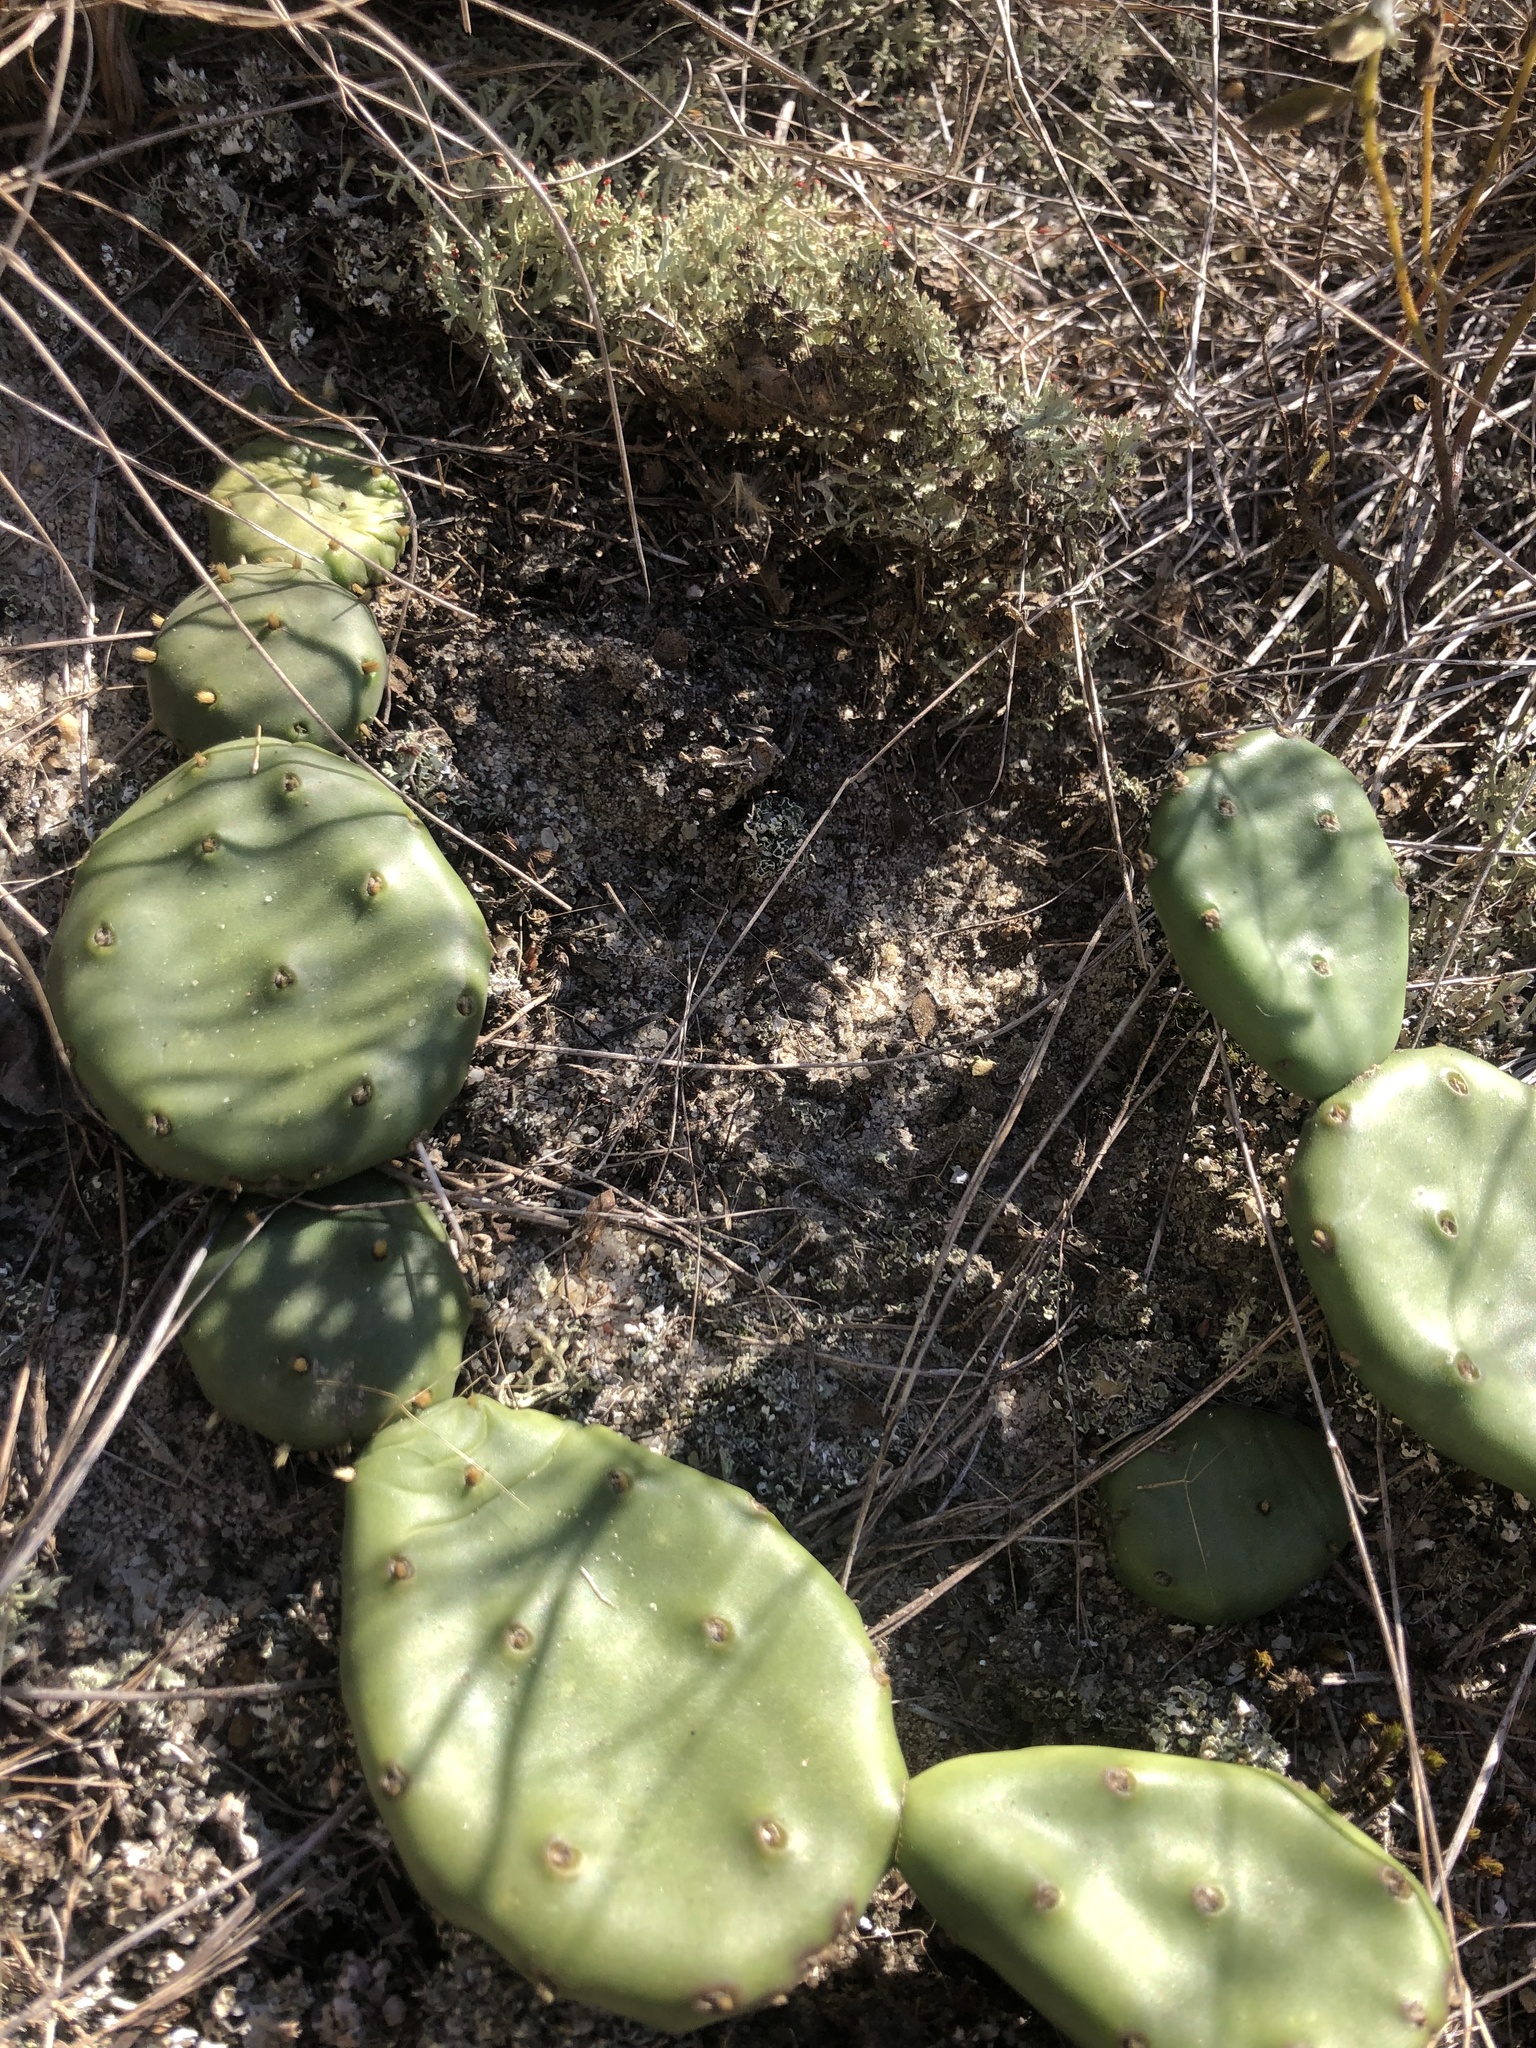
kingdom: Plantae
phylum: Tracheophyta
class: Magnoliopsida
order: Caryophyllales
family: Cactaceae
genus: Opuntia
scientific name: Opuntia mesacantha
